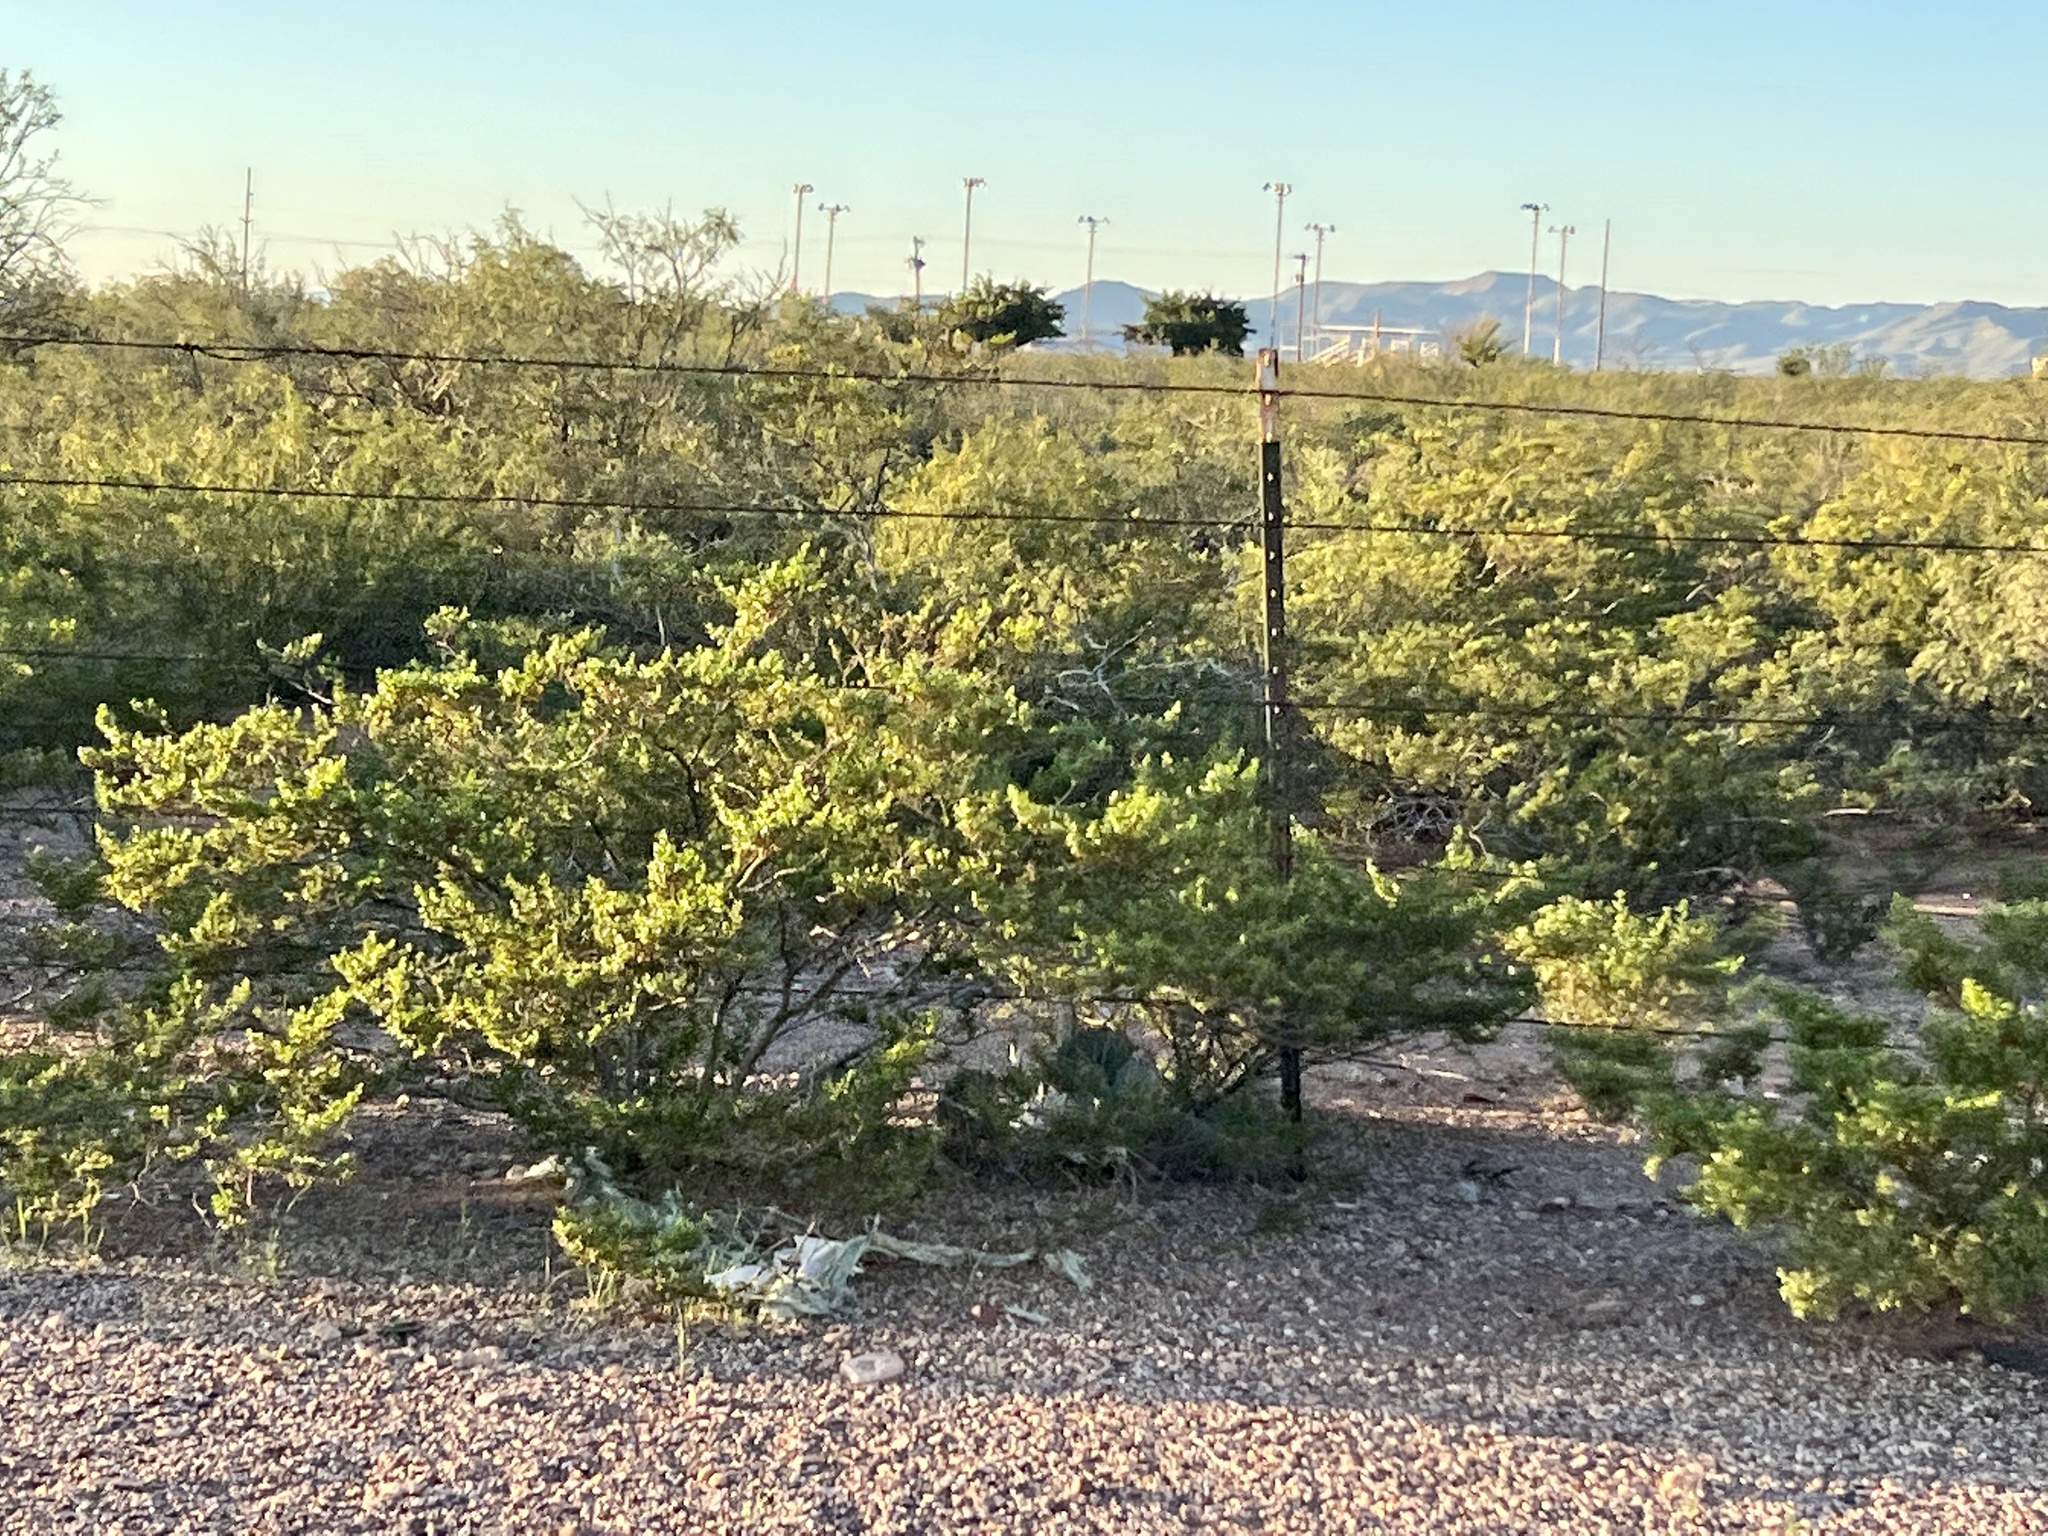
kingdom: Plantae
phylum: Tracheophyta
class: Magnoliopsida
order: Zygophyllales
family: Zygophyllaceae
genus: Larrea
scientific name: Larrea tridentata
